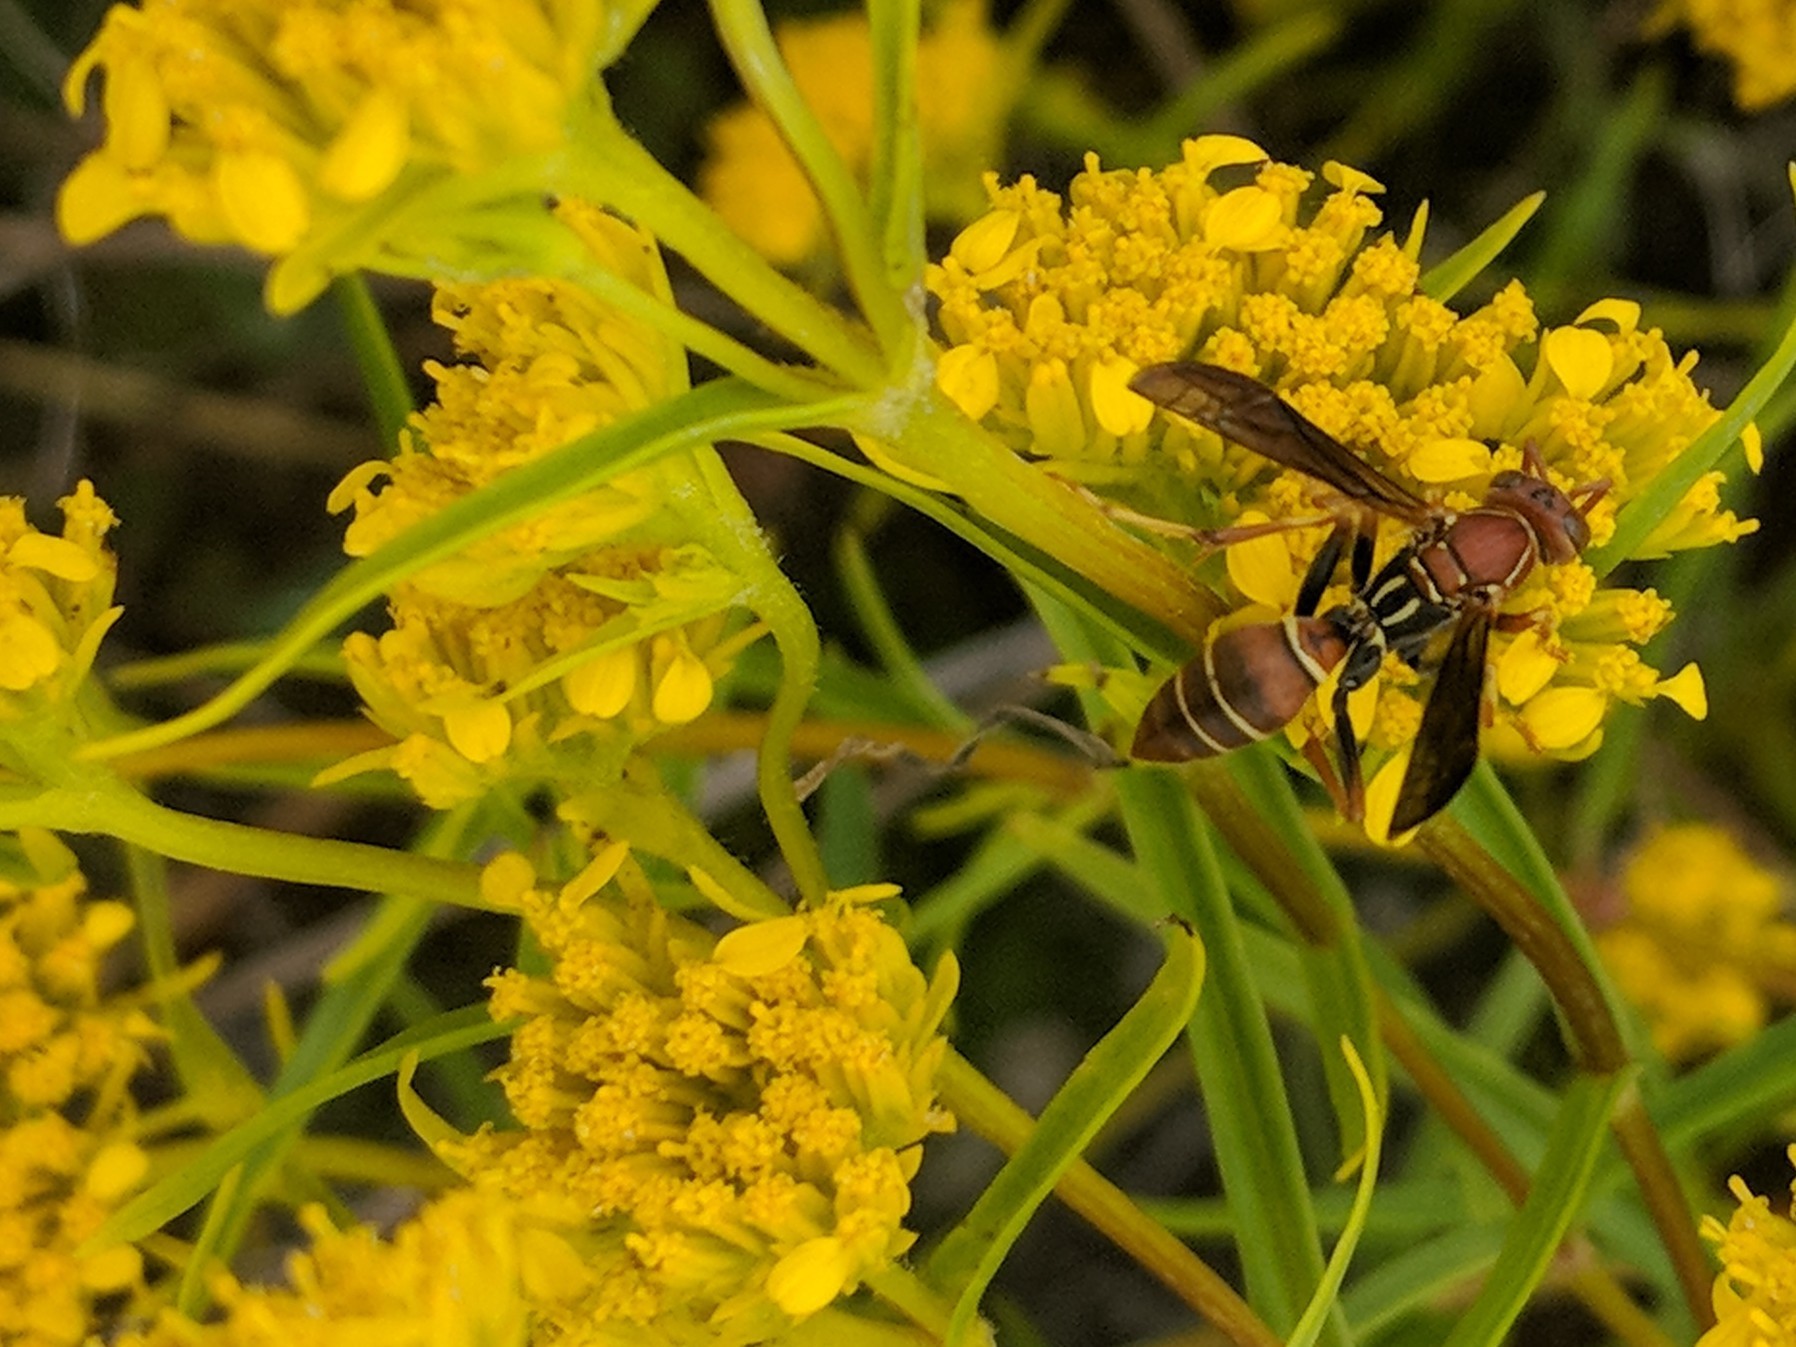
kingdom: Animalia
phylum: Arthropoda
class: Insecta
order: Hymenoptera
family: Eumenidae
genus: Polistes
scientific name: Polistes dorsalis
